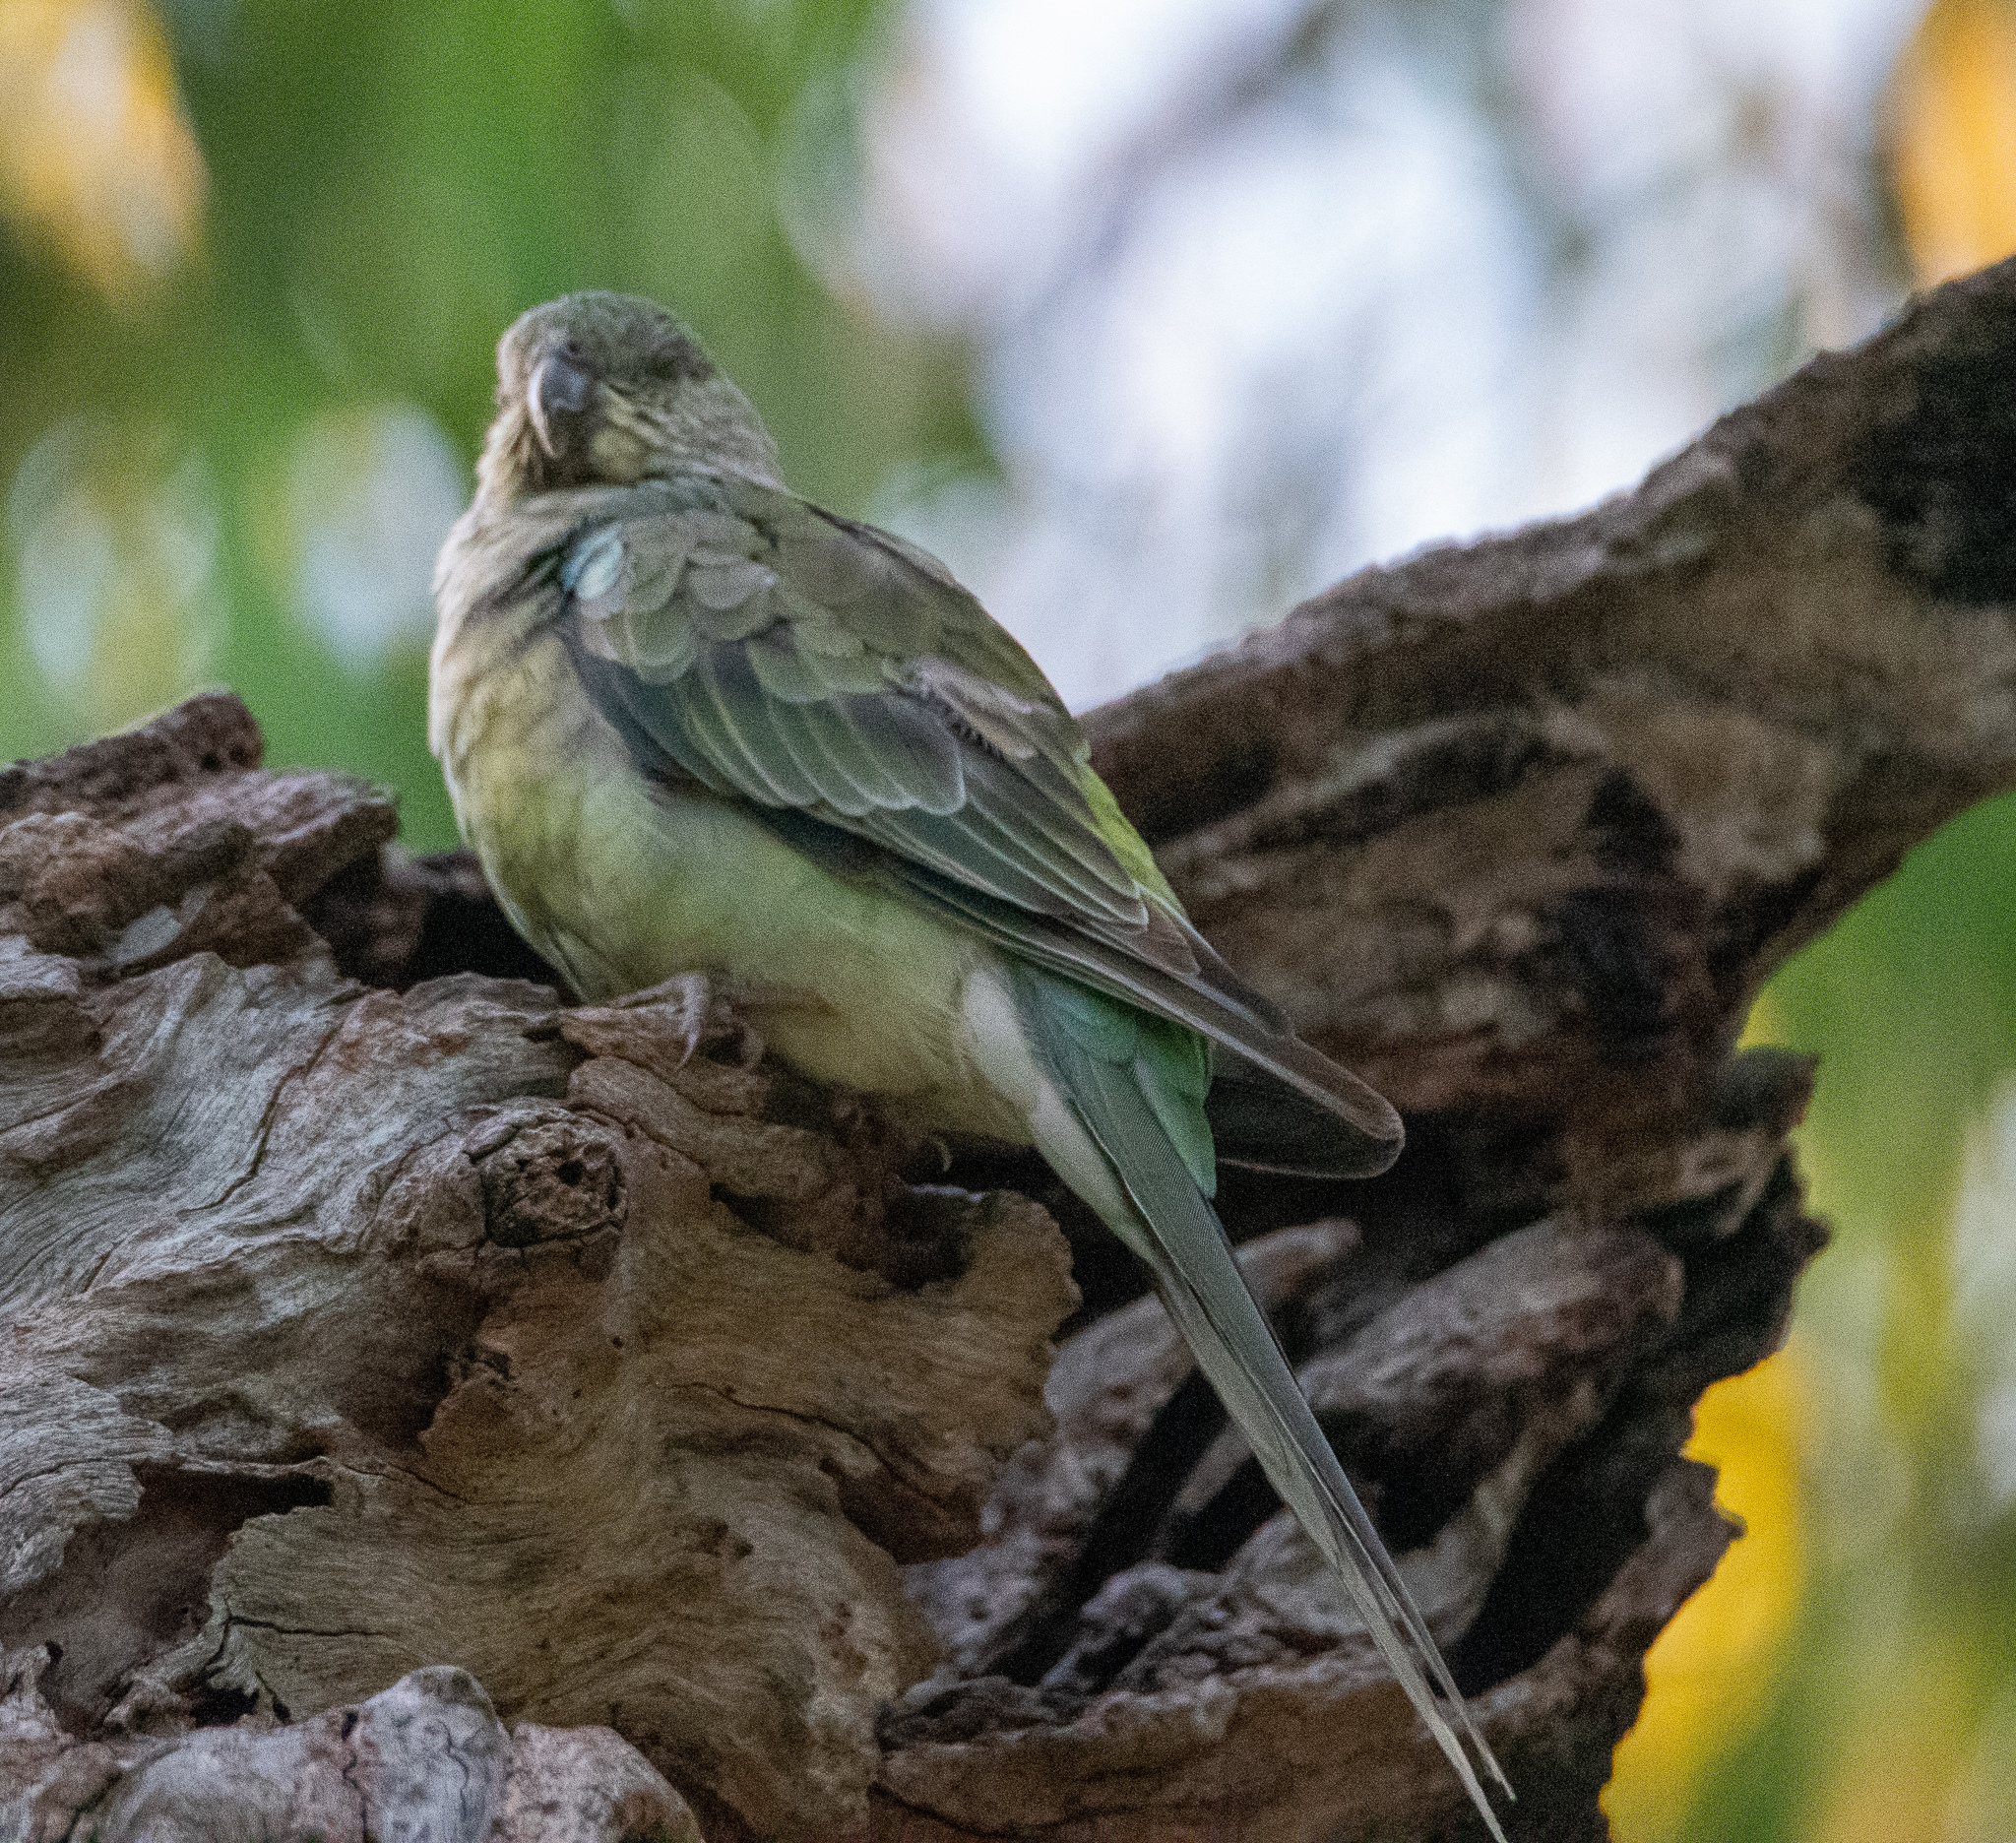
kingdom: Animalia
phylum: Chordata
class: Aves
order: Psittaciformes
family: Psittacidae
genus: Psephotus
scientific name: Psephotus haematonotus
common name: Red-rumped parrot
